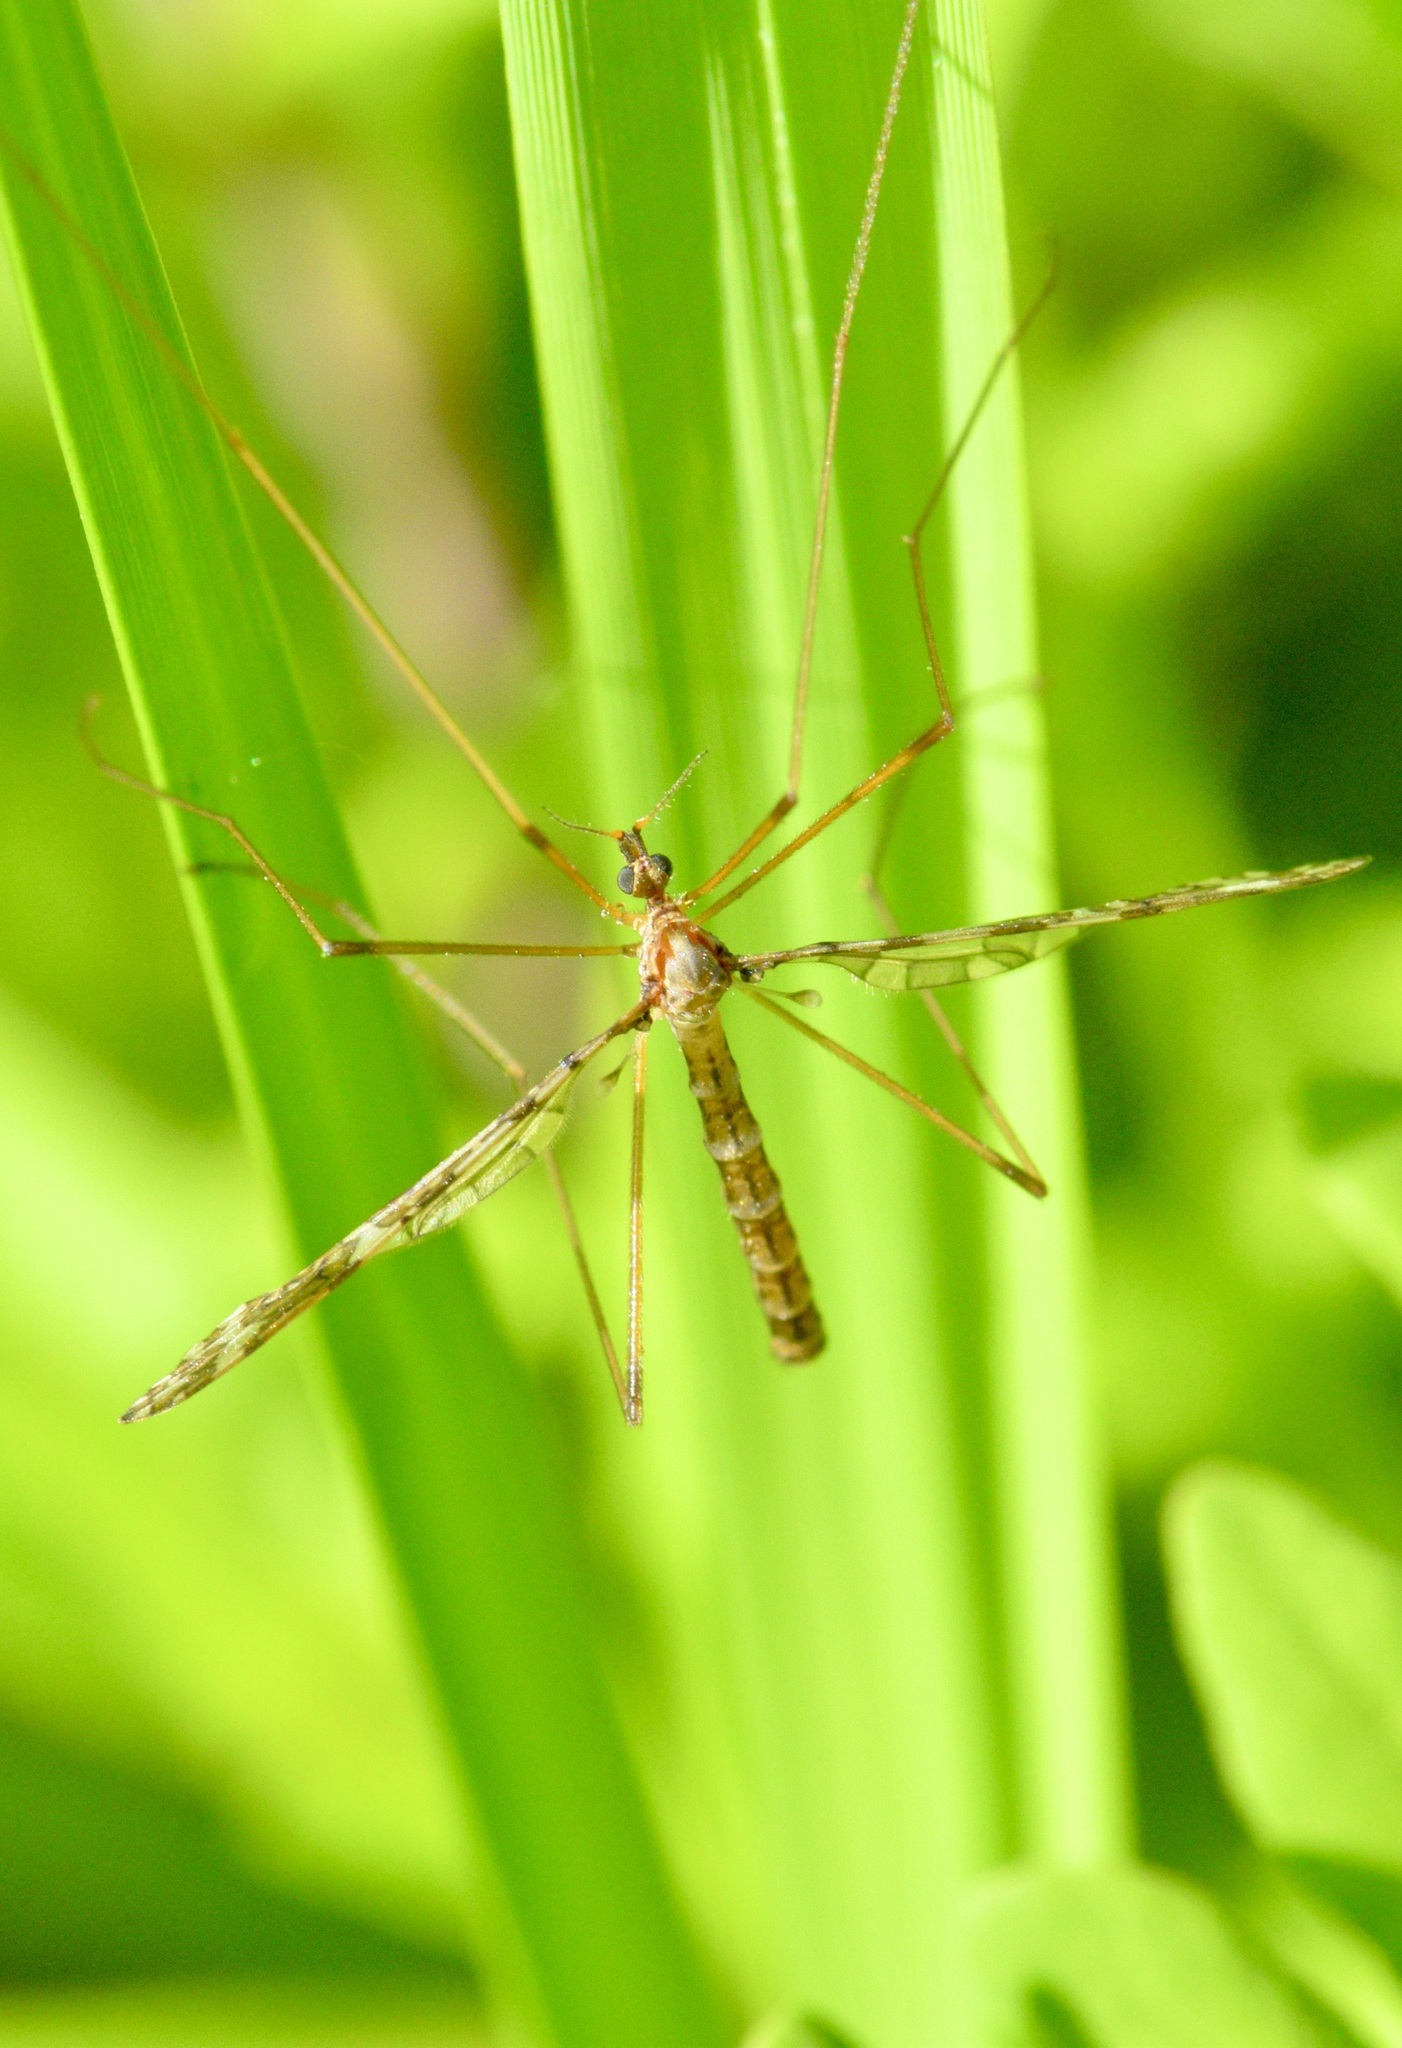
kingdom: Animalia
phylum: Arthropoda
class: Insecta
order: Diptera
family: Limoniidae
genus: Epiphragma
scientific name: Epiphragma fasciapenne
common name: Band-winged crane fly
